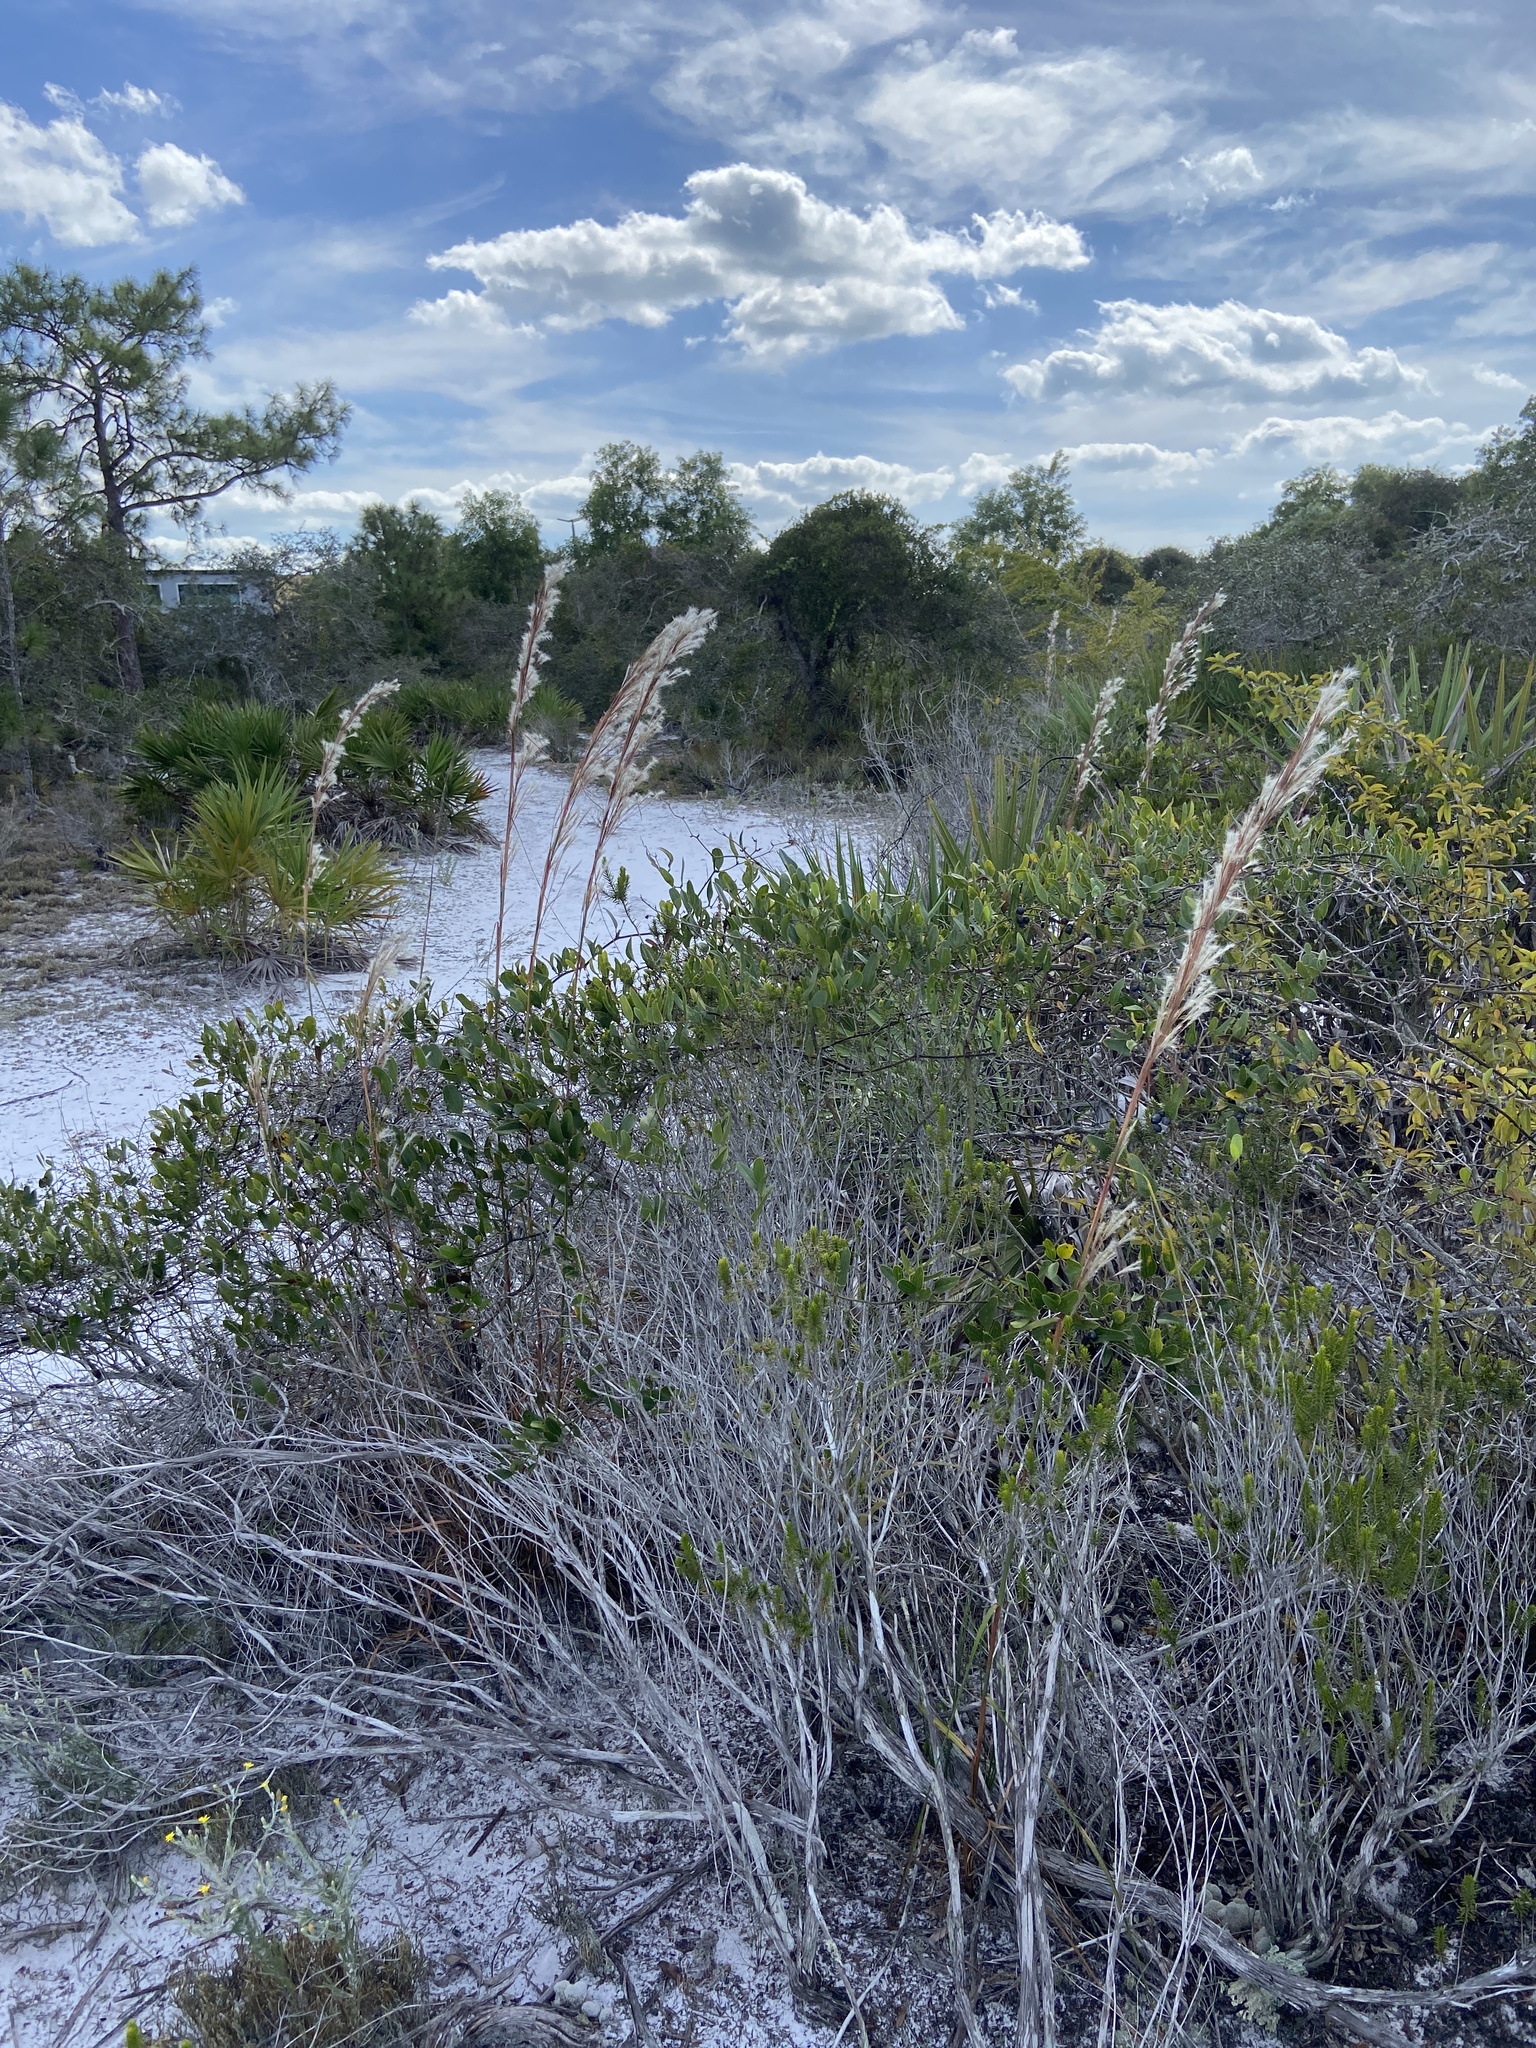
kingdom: Plantae
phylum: Tracheophyta
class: Liliopsida
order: Poales
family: Poaceae
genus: Andropogon
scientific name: Andropogon floridanus
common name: Florida bluestem
